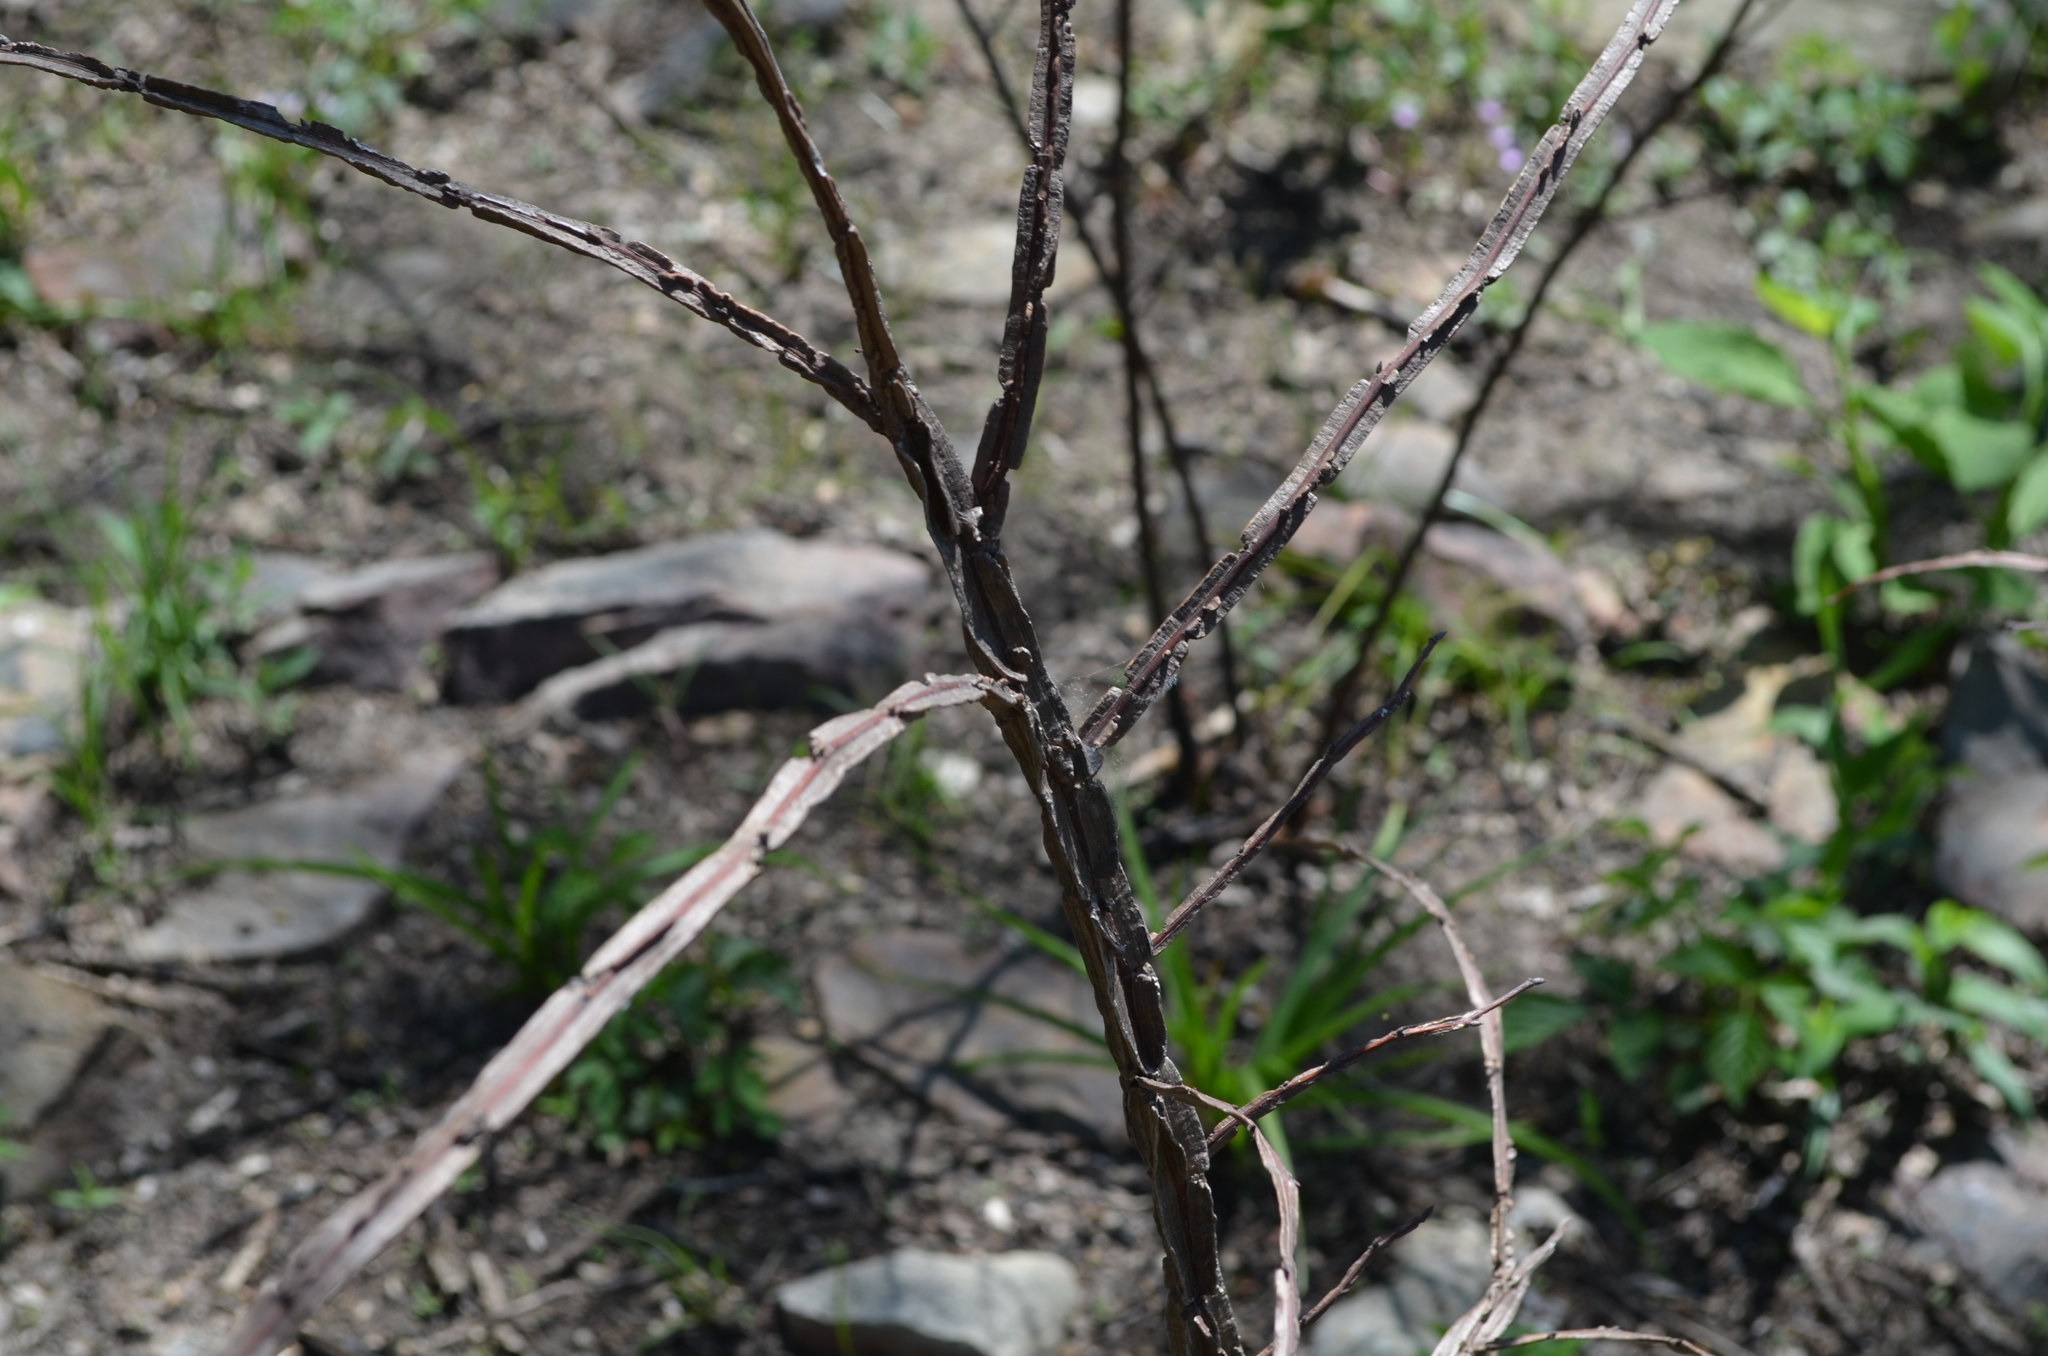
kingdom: Plantae
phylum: Tracheophyta
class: Magnoliopsida
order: Rosales
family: Ulmaceae
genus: Ulmus
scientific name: Ulmus alata
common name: Winged elm
